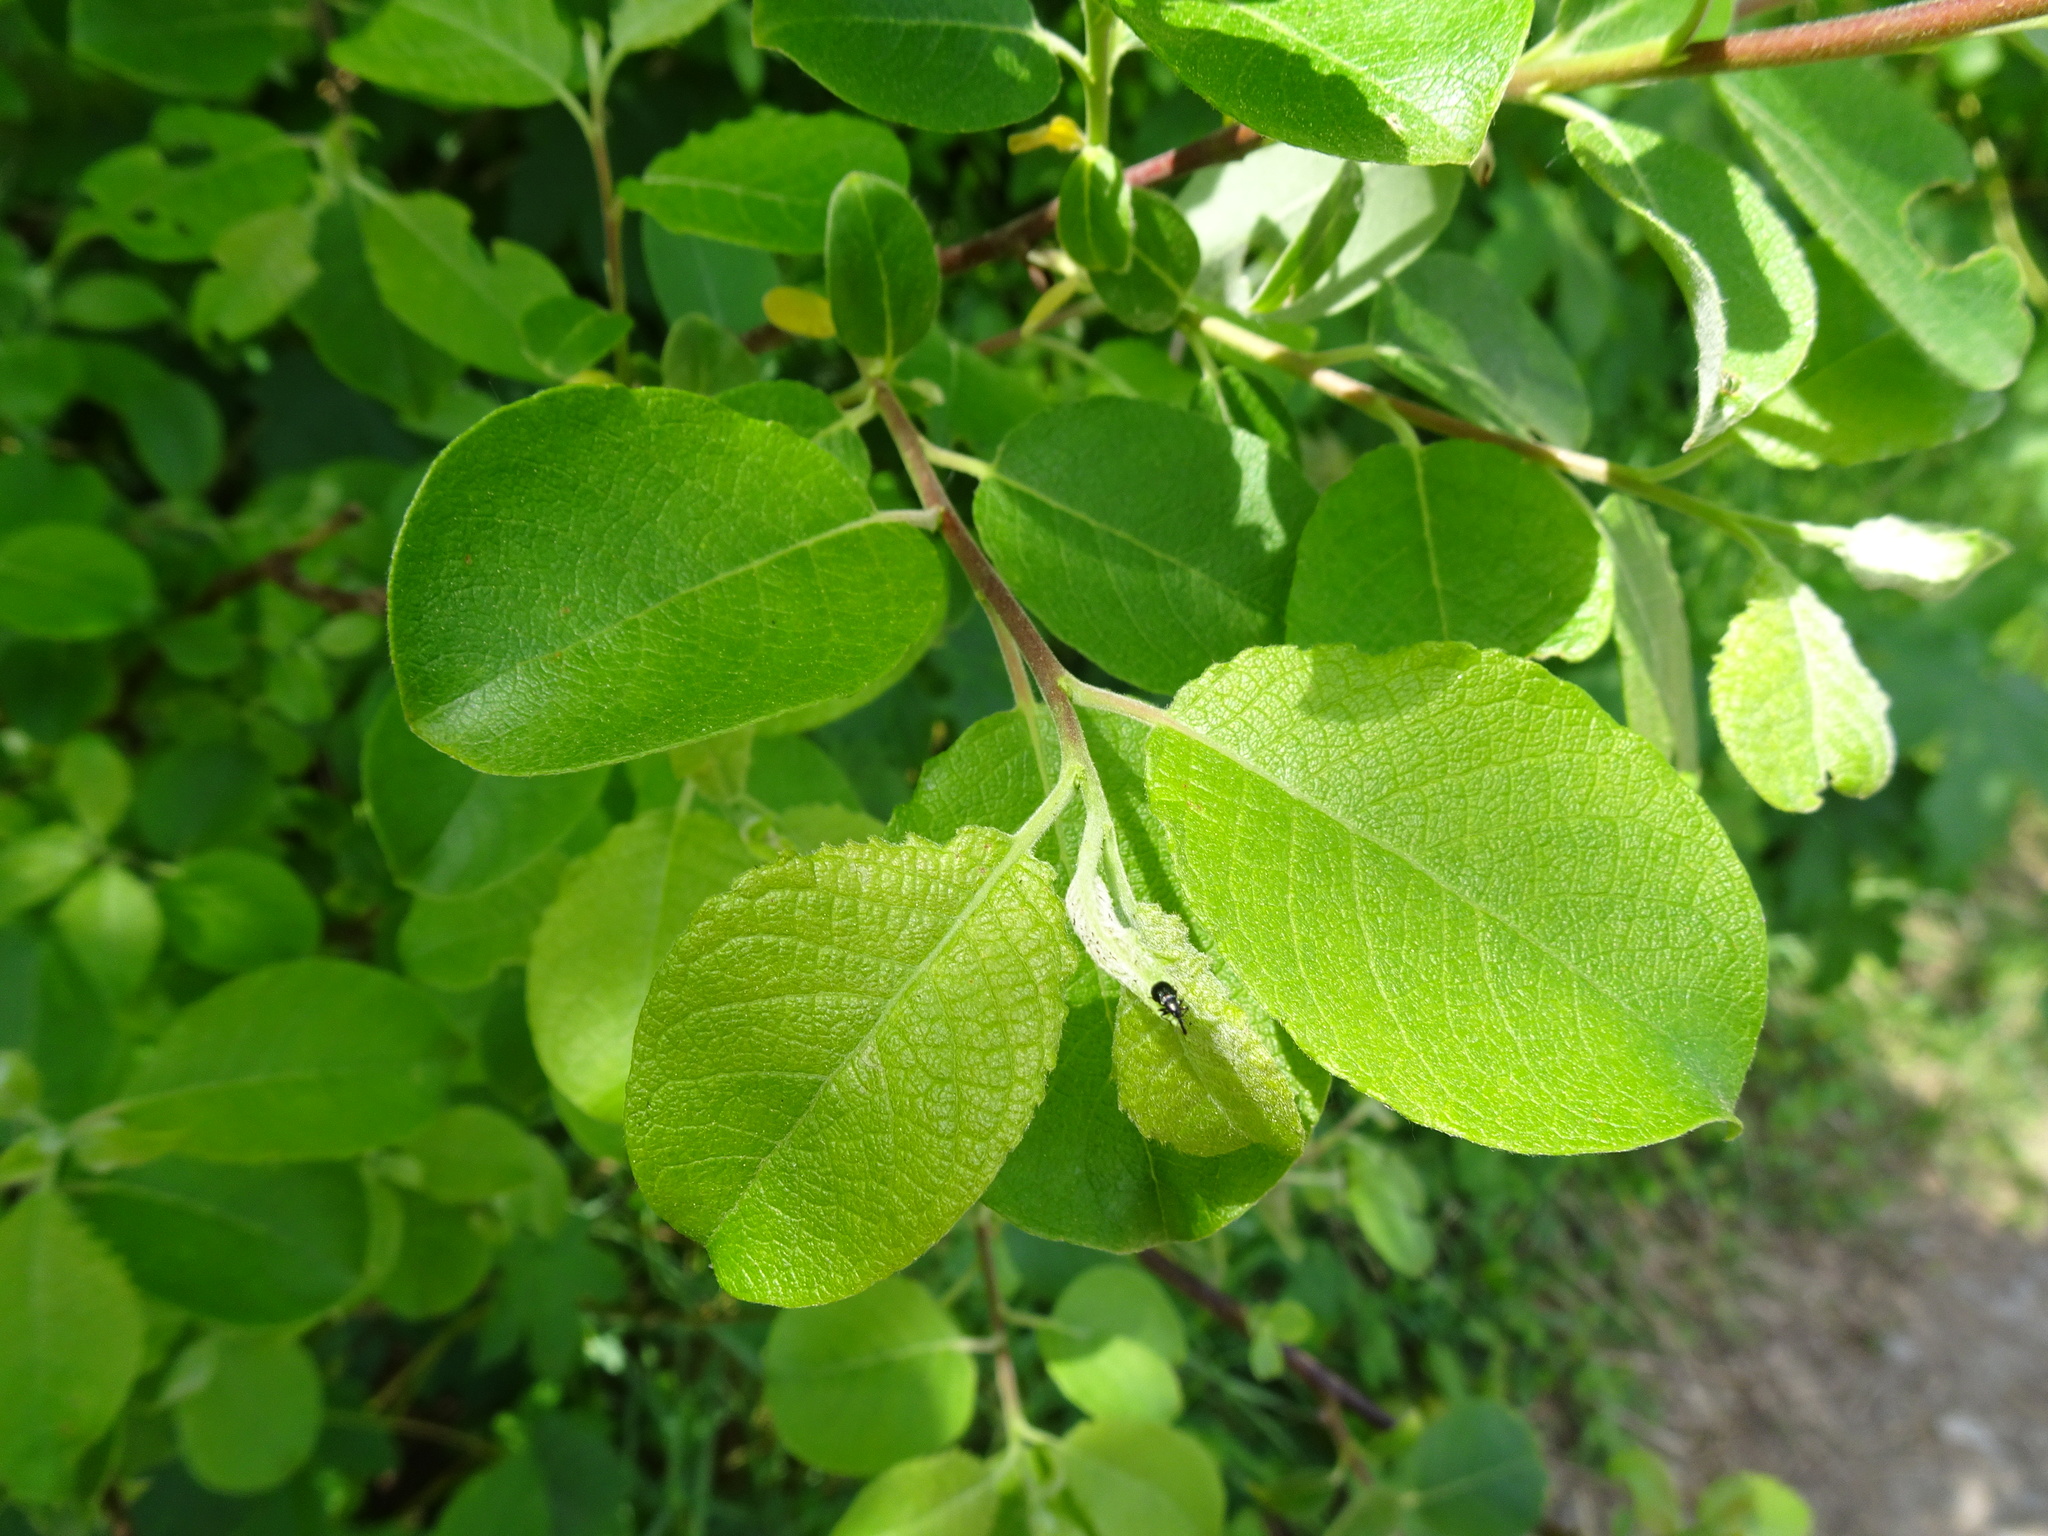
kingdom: Plantae
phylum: Tracheophyta
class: Magnoliopsida
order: Malpighiales
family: Salicaceae
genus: Salix
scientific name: Salix caprea
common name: Goat willow
